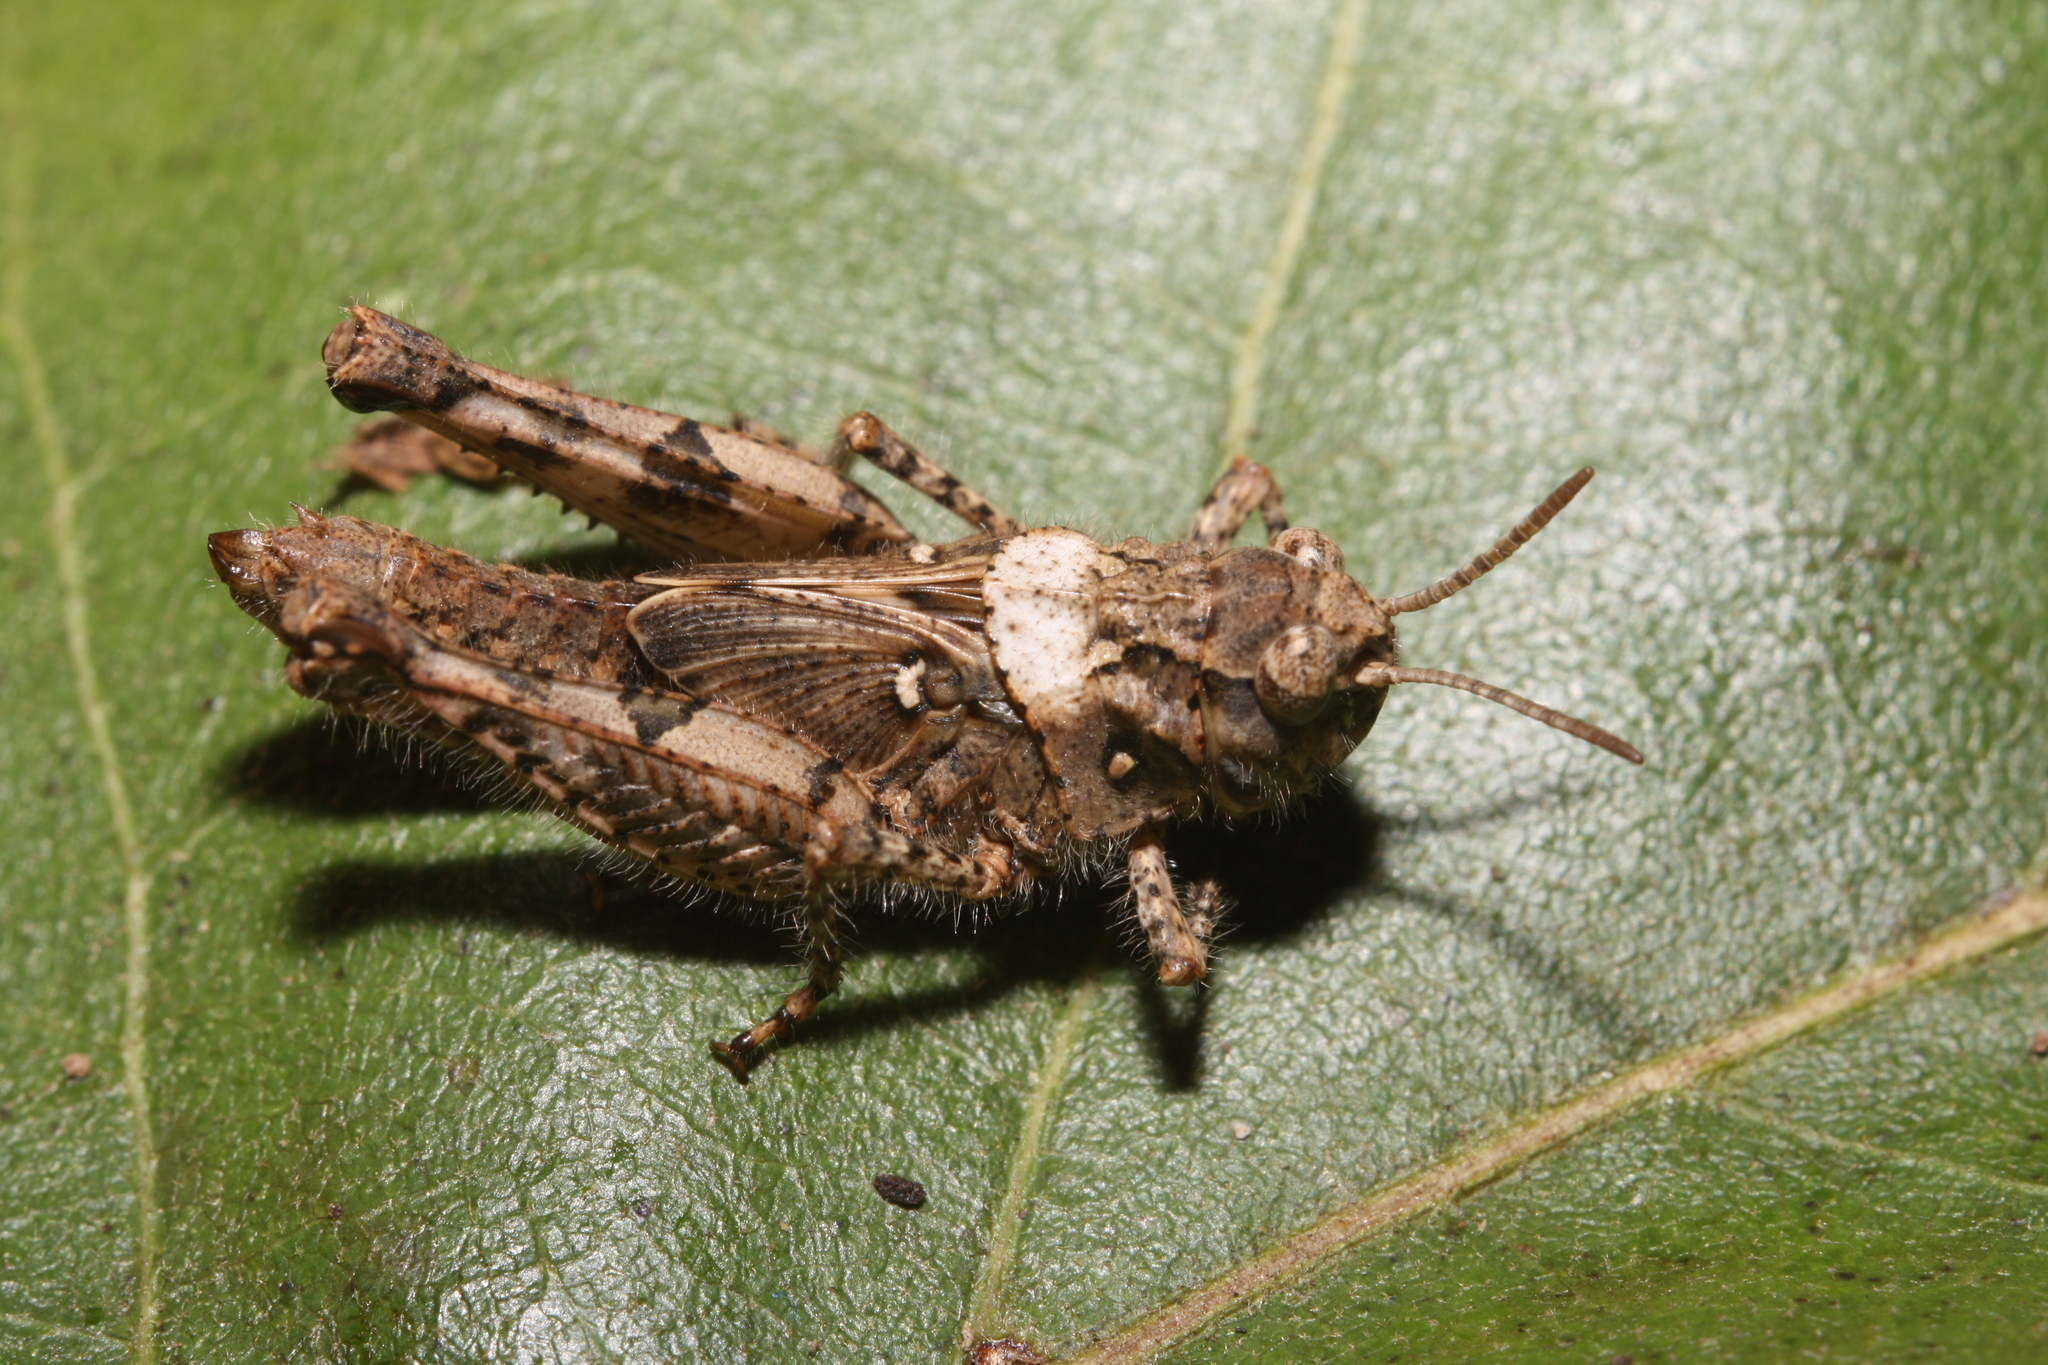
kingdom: Animalia
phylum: Arthropoda
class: Insecta
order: Orthoptera
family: Acrididae
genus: Acrotylus
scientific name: Acrotylus insubricus
